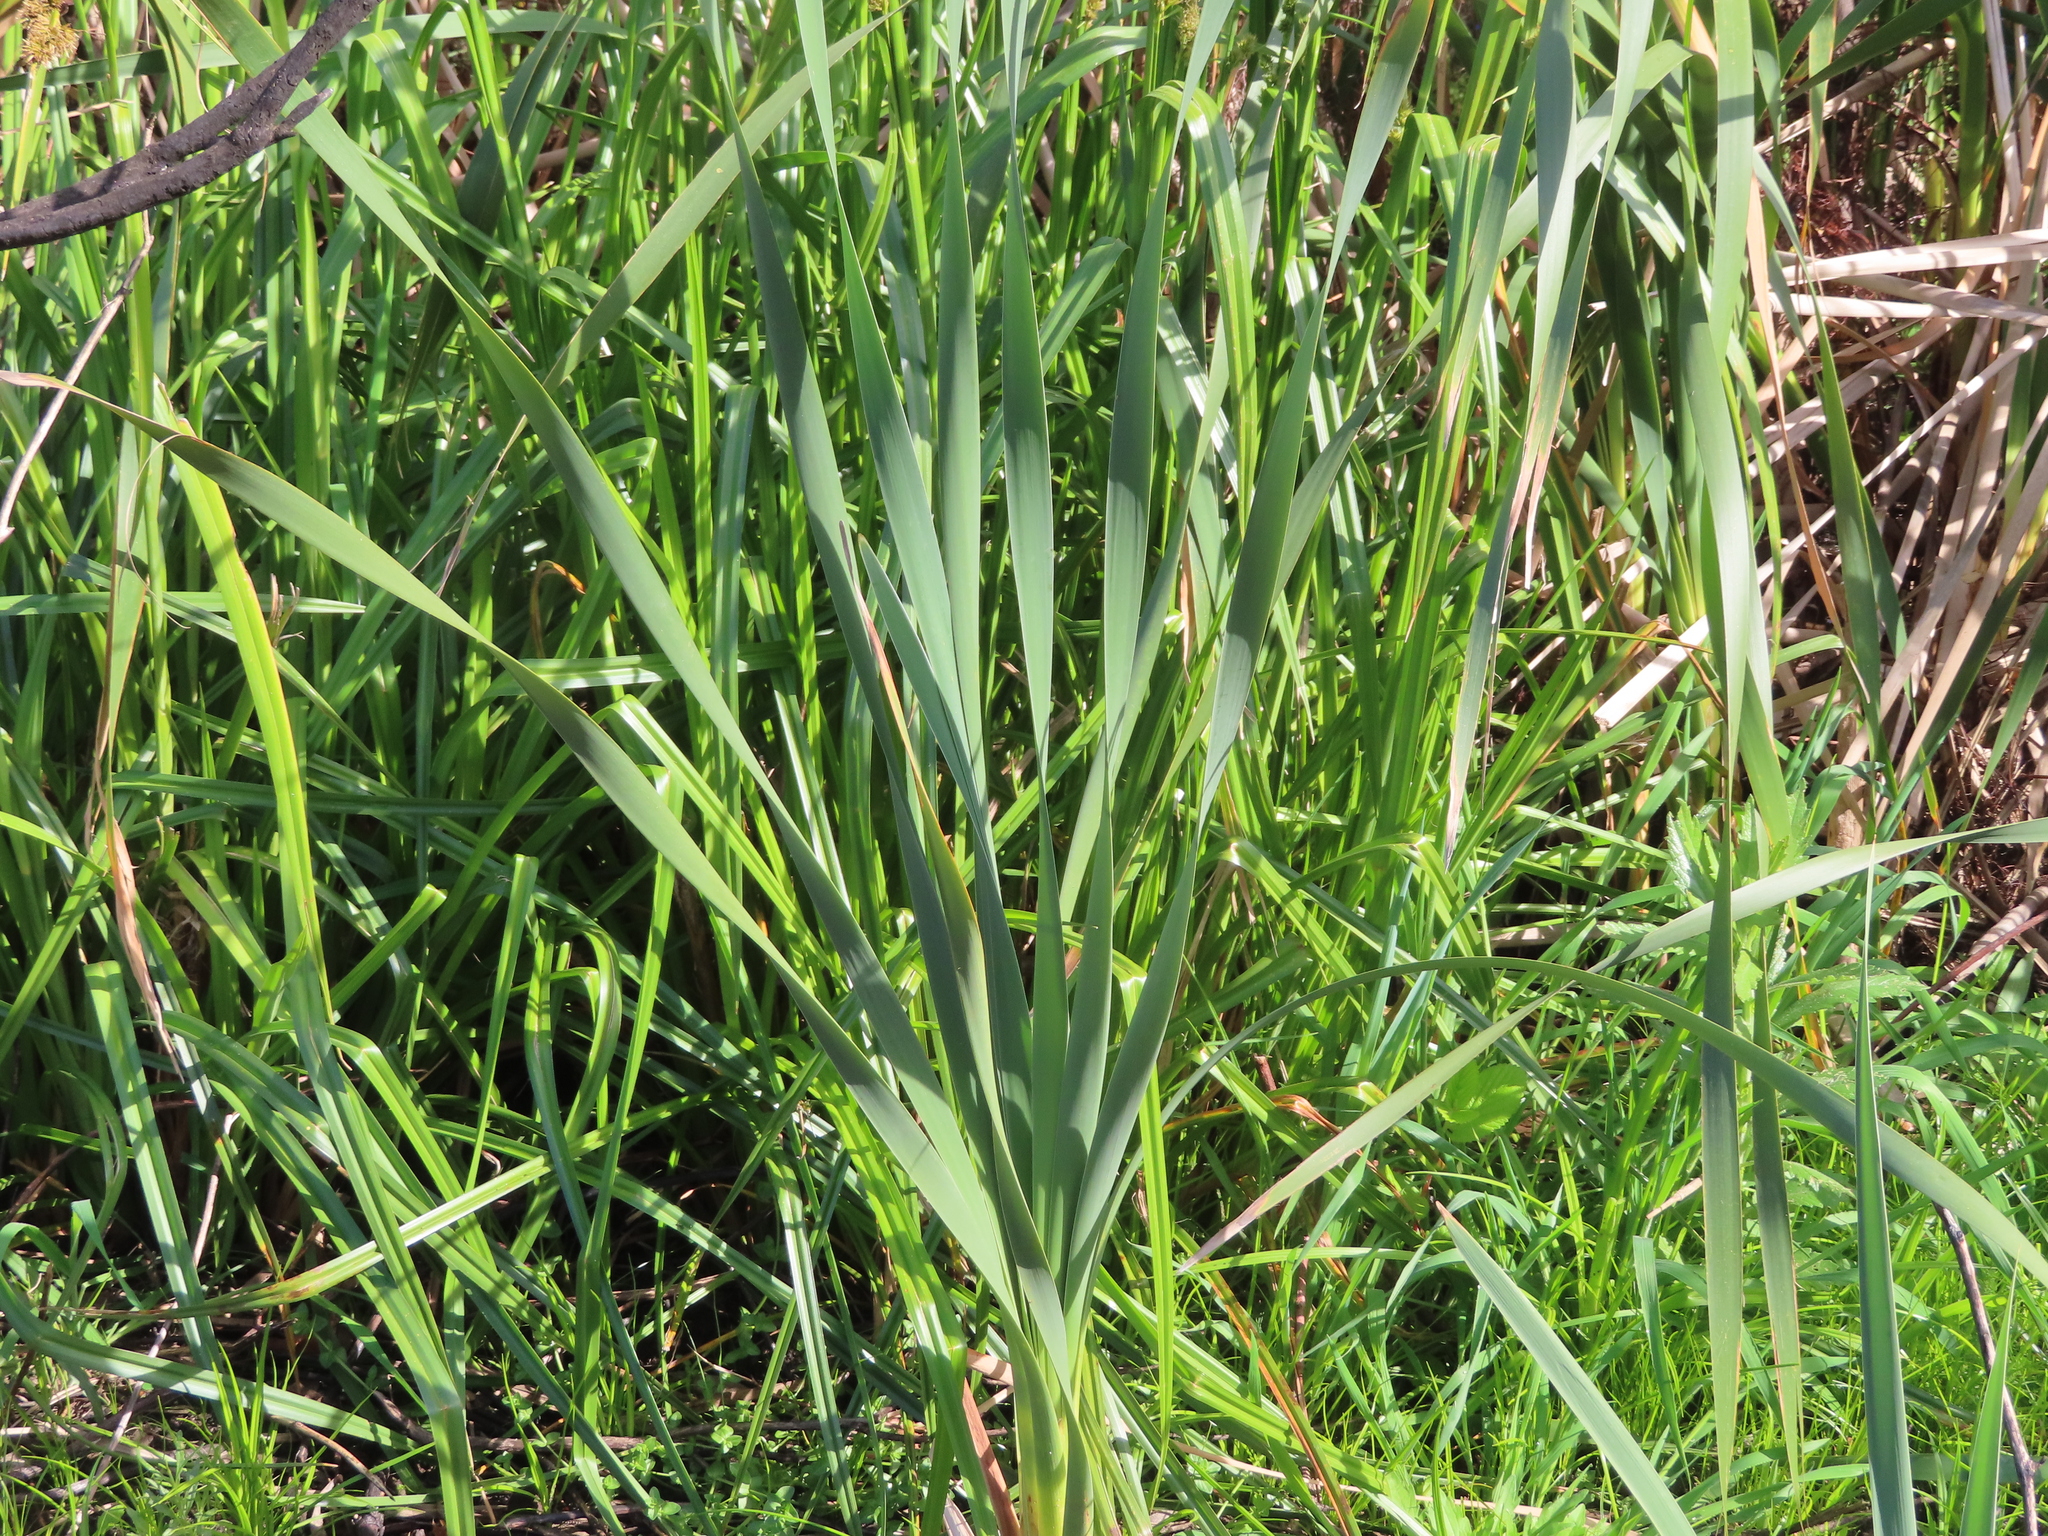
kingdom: Plantae
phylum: Tracheophyta
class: Liliopsida
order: Poales
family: Typhaceae
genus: Typha
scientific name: Typha capensis
